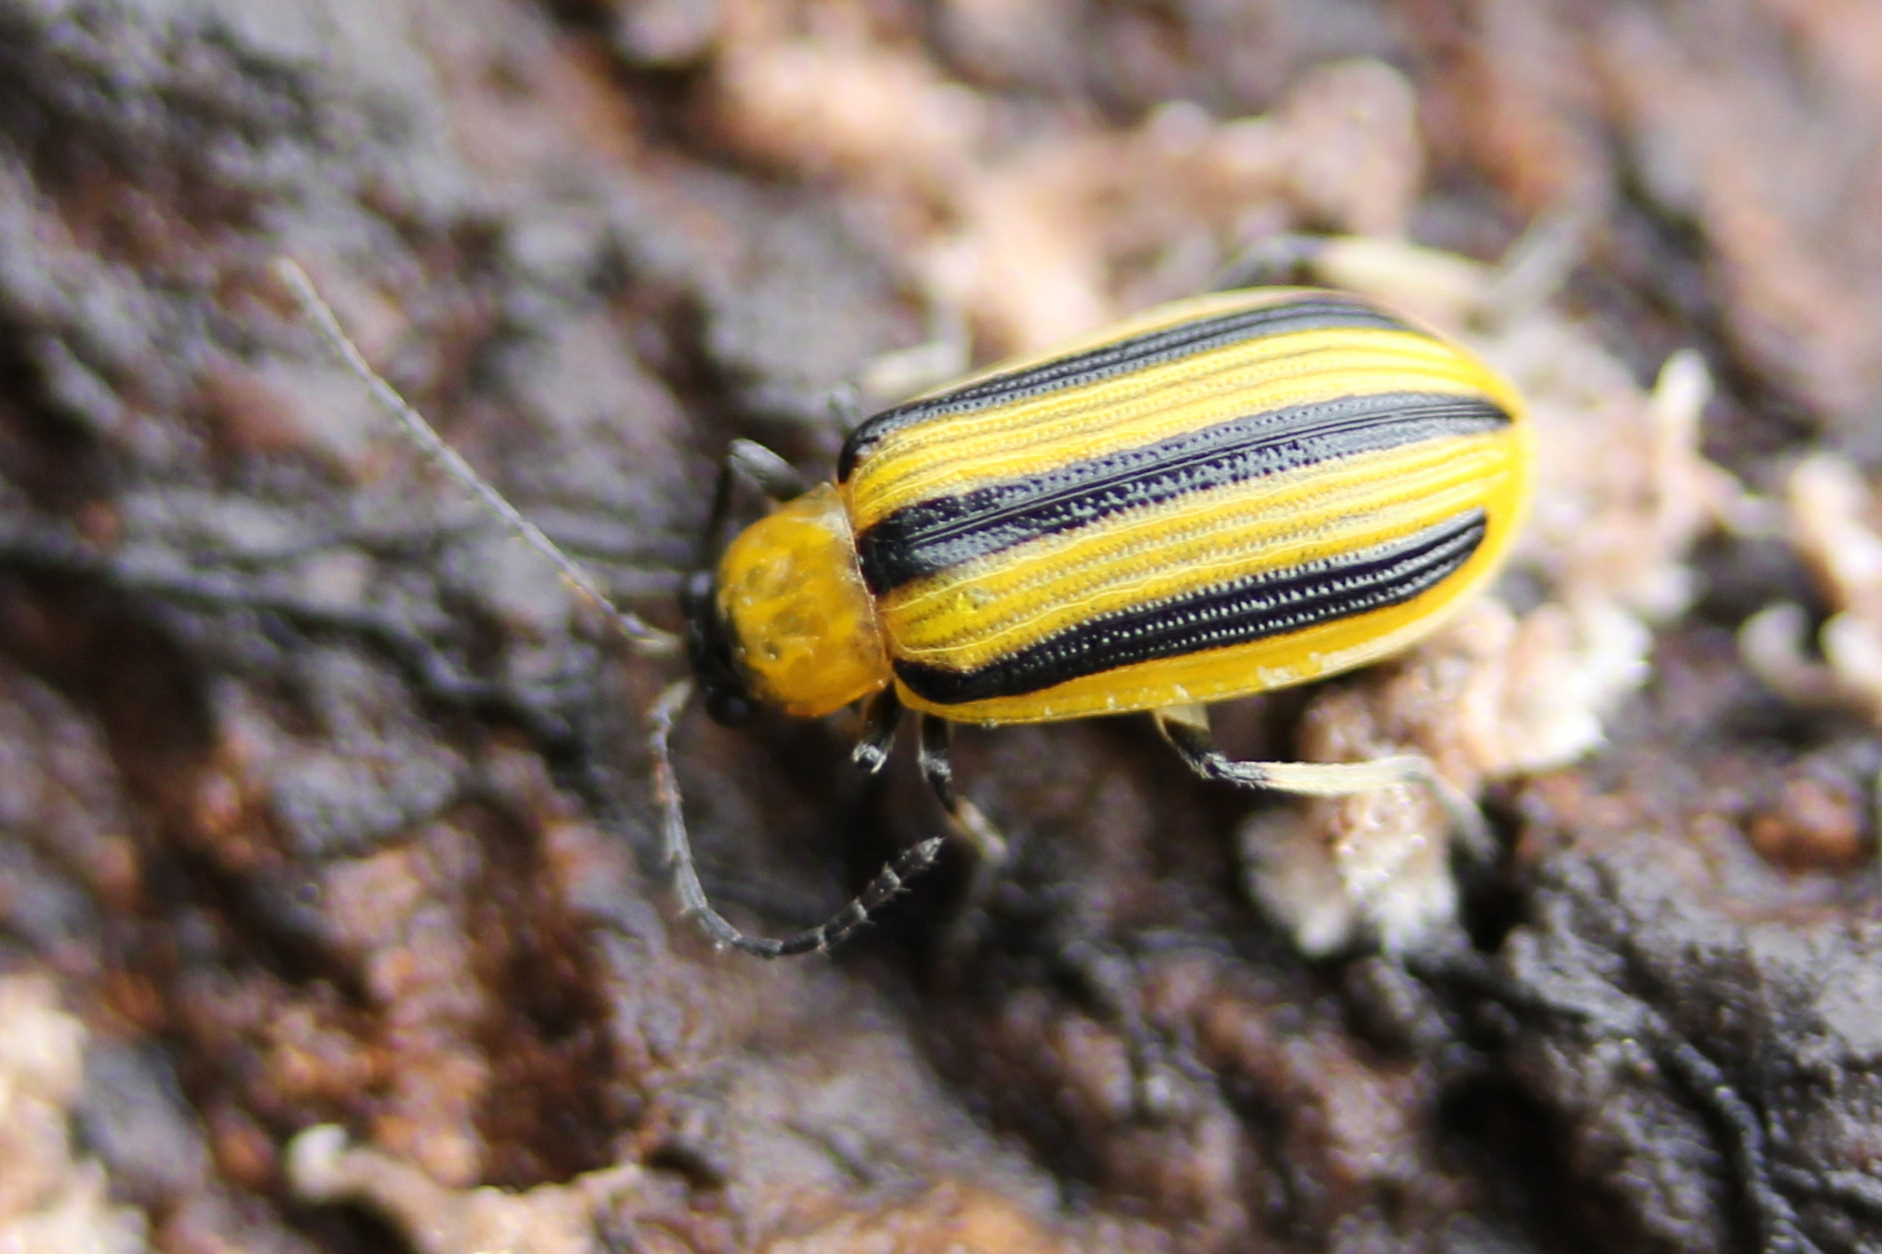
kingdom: Animalia
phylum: Arthropoda
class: Insecta
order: Coleoptera
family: Chrysomelidae
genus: Acalymma
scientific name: Acalymma vittatum
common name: Striped cucumber beetle
